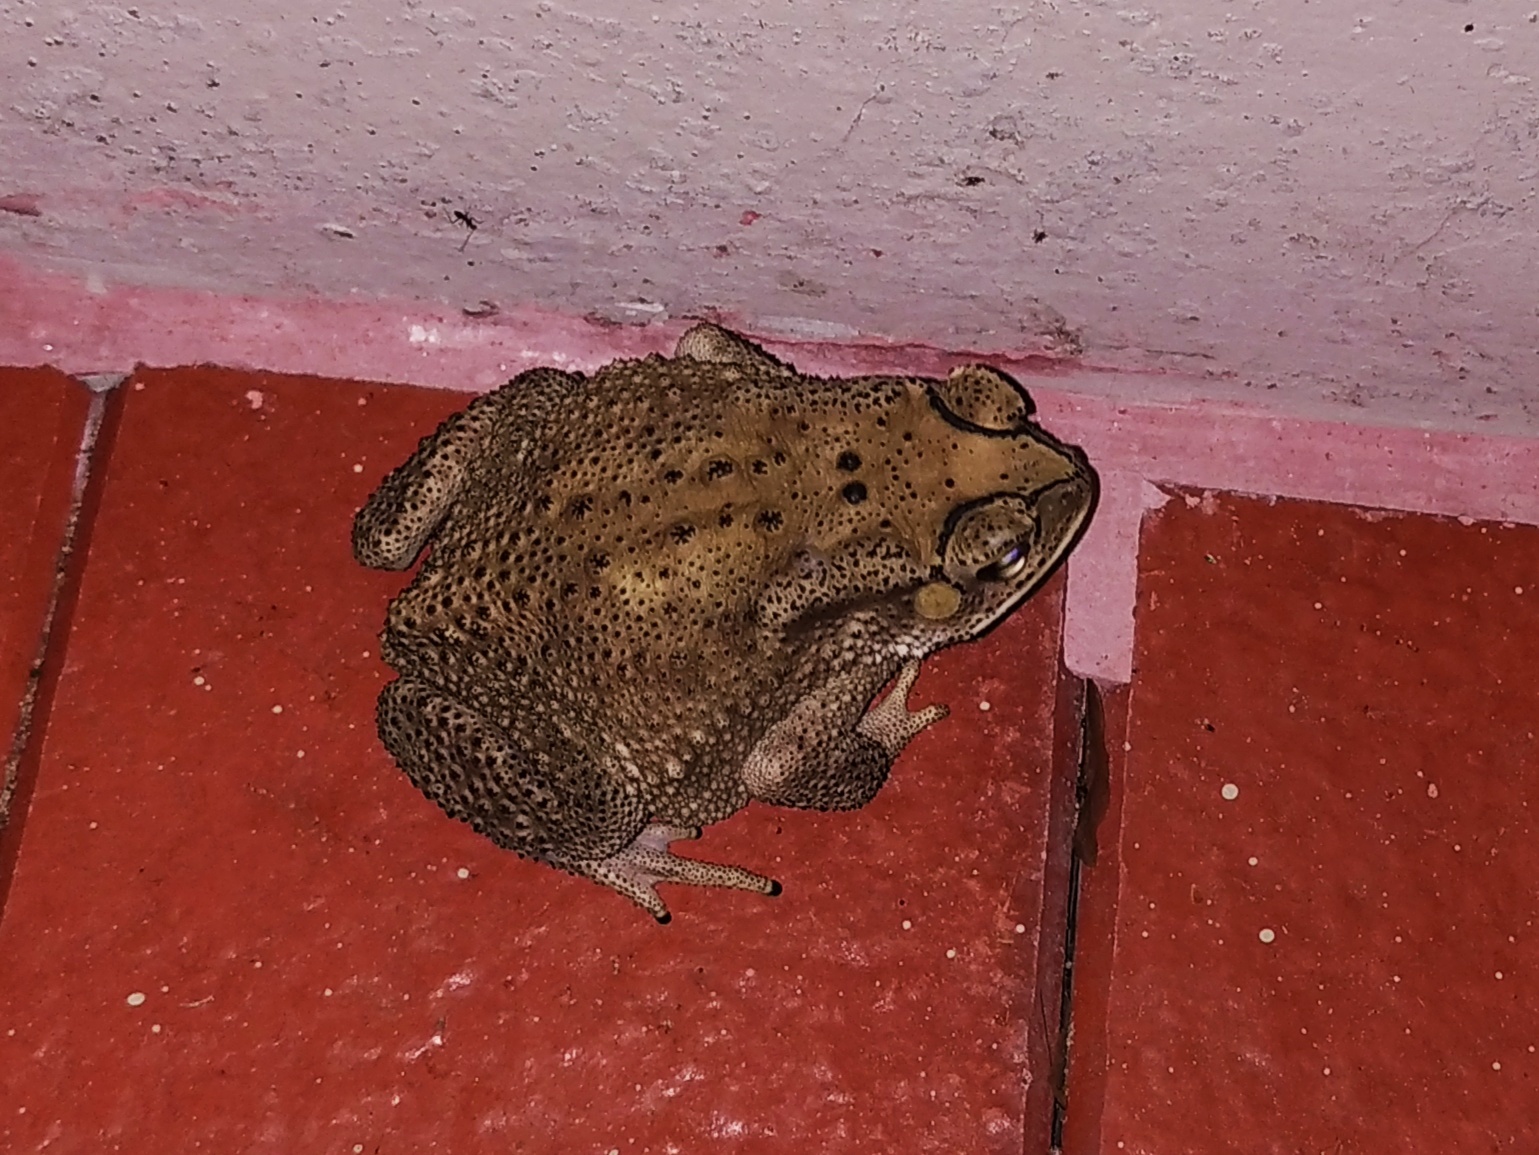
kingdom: Animalia
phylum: Chordata
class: Amphibia
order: Anura
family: Bufonidae
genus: Duttaphrynus
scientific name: Duttaphrynus melanostictus
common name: Common sunda toad
